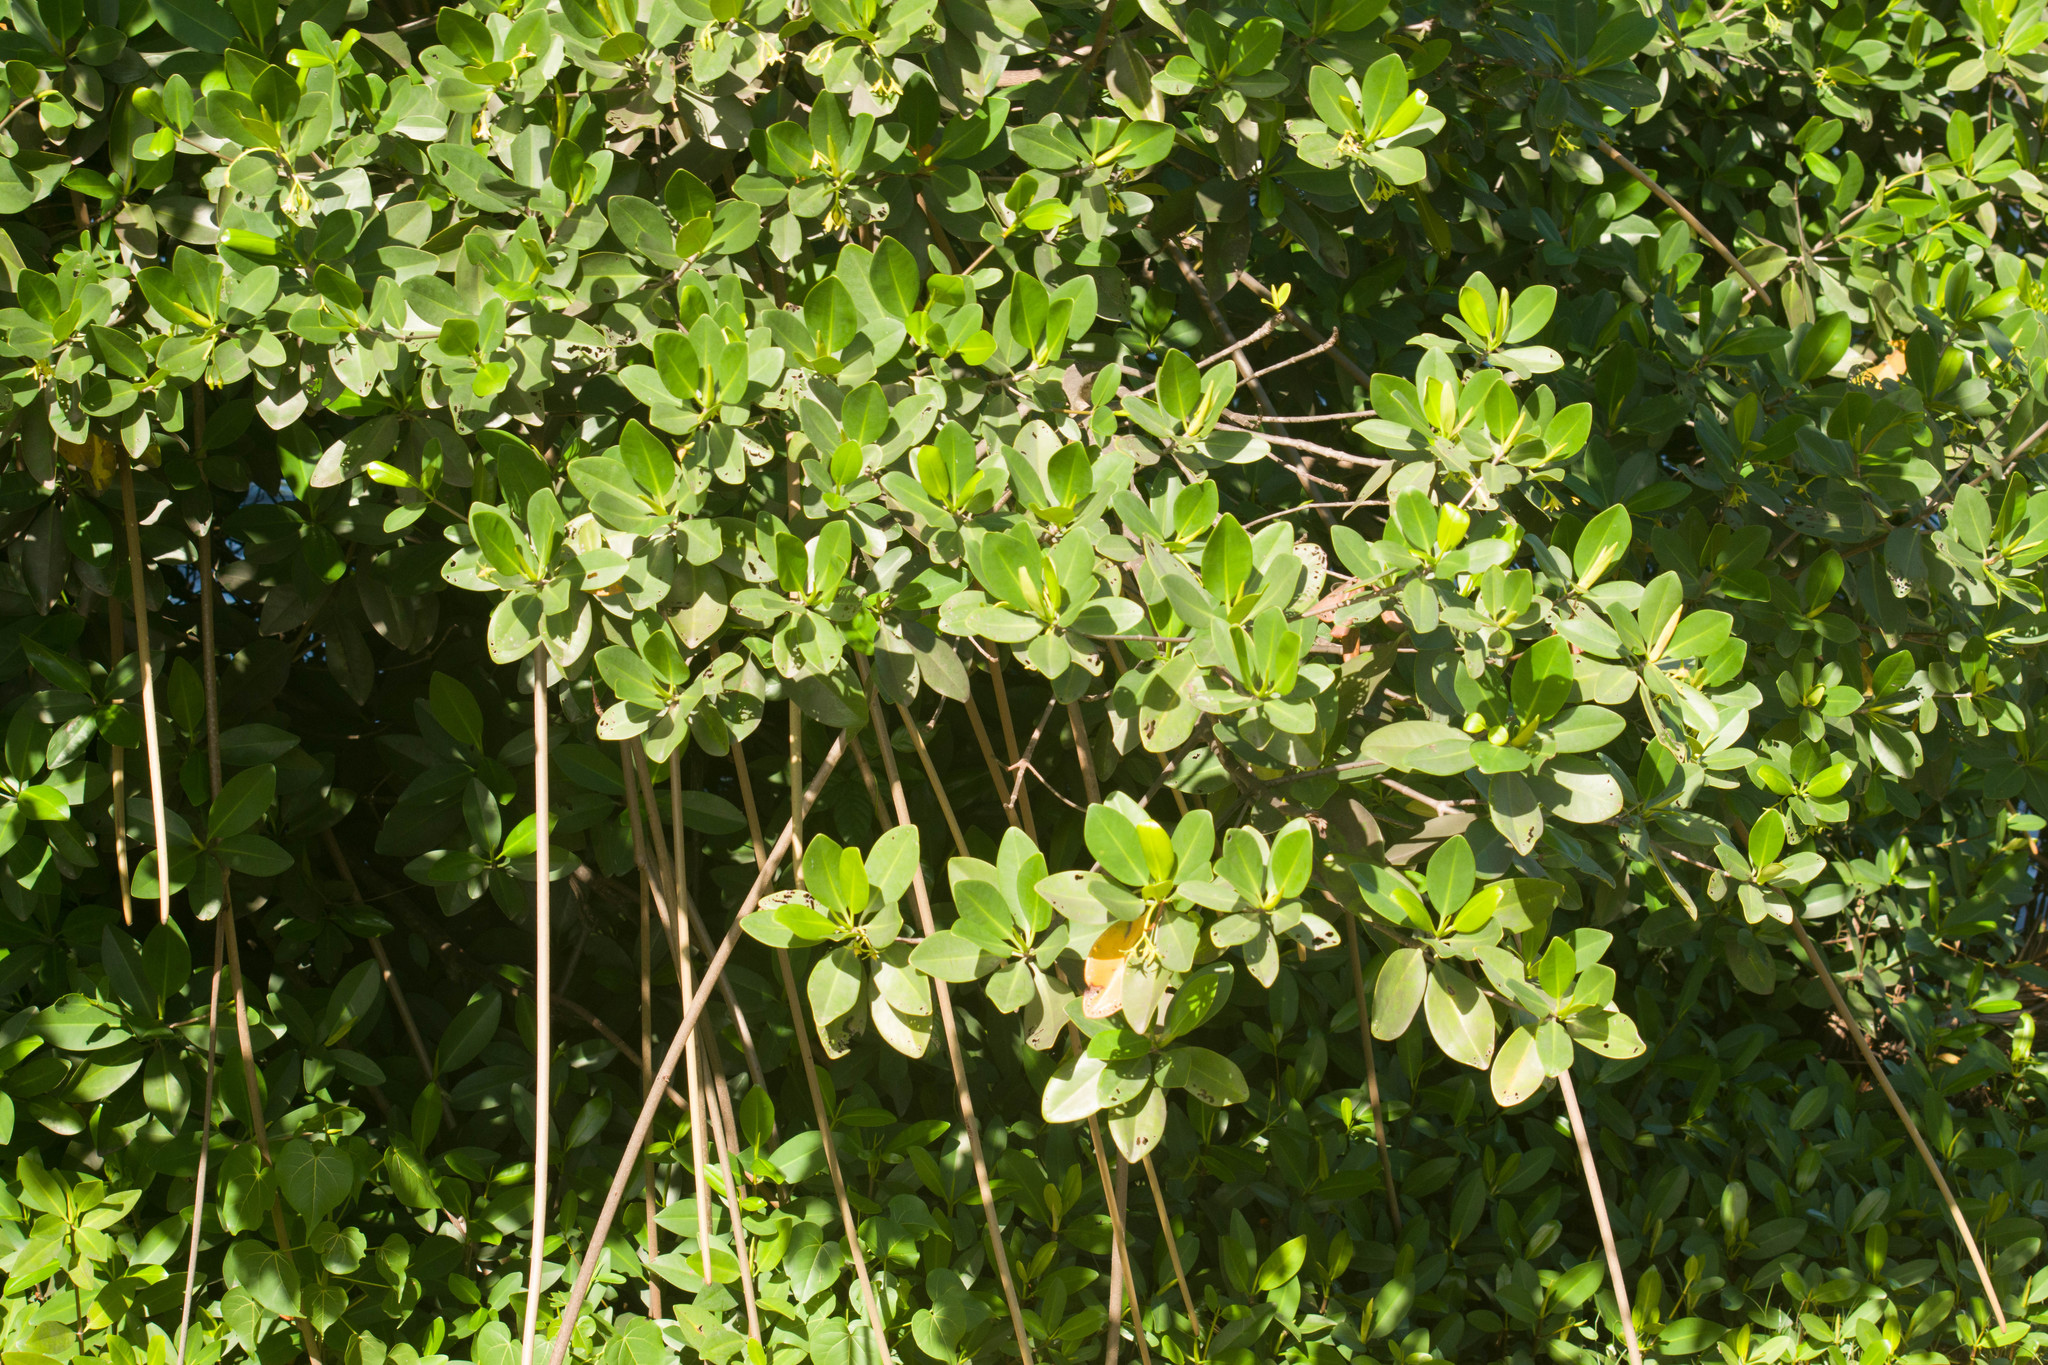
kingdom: Plantae
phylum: Tracheophyta
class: Magnoliopsida
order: Malpighiales
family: Rhizophoraceae
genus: Rhizophora
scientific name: Rhizophora mangle
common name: Red mangrove
